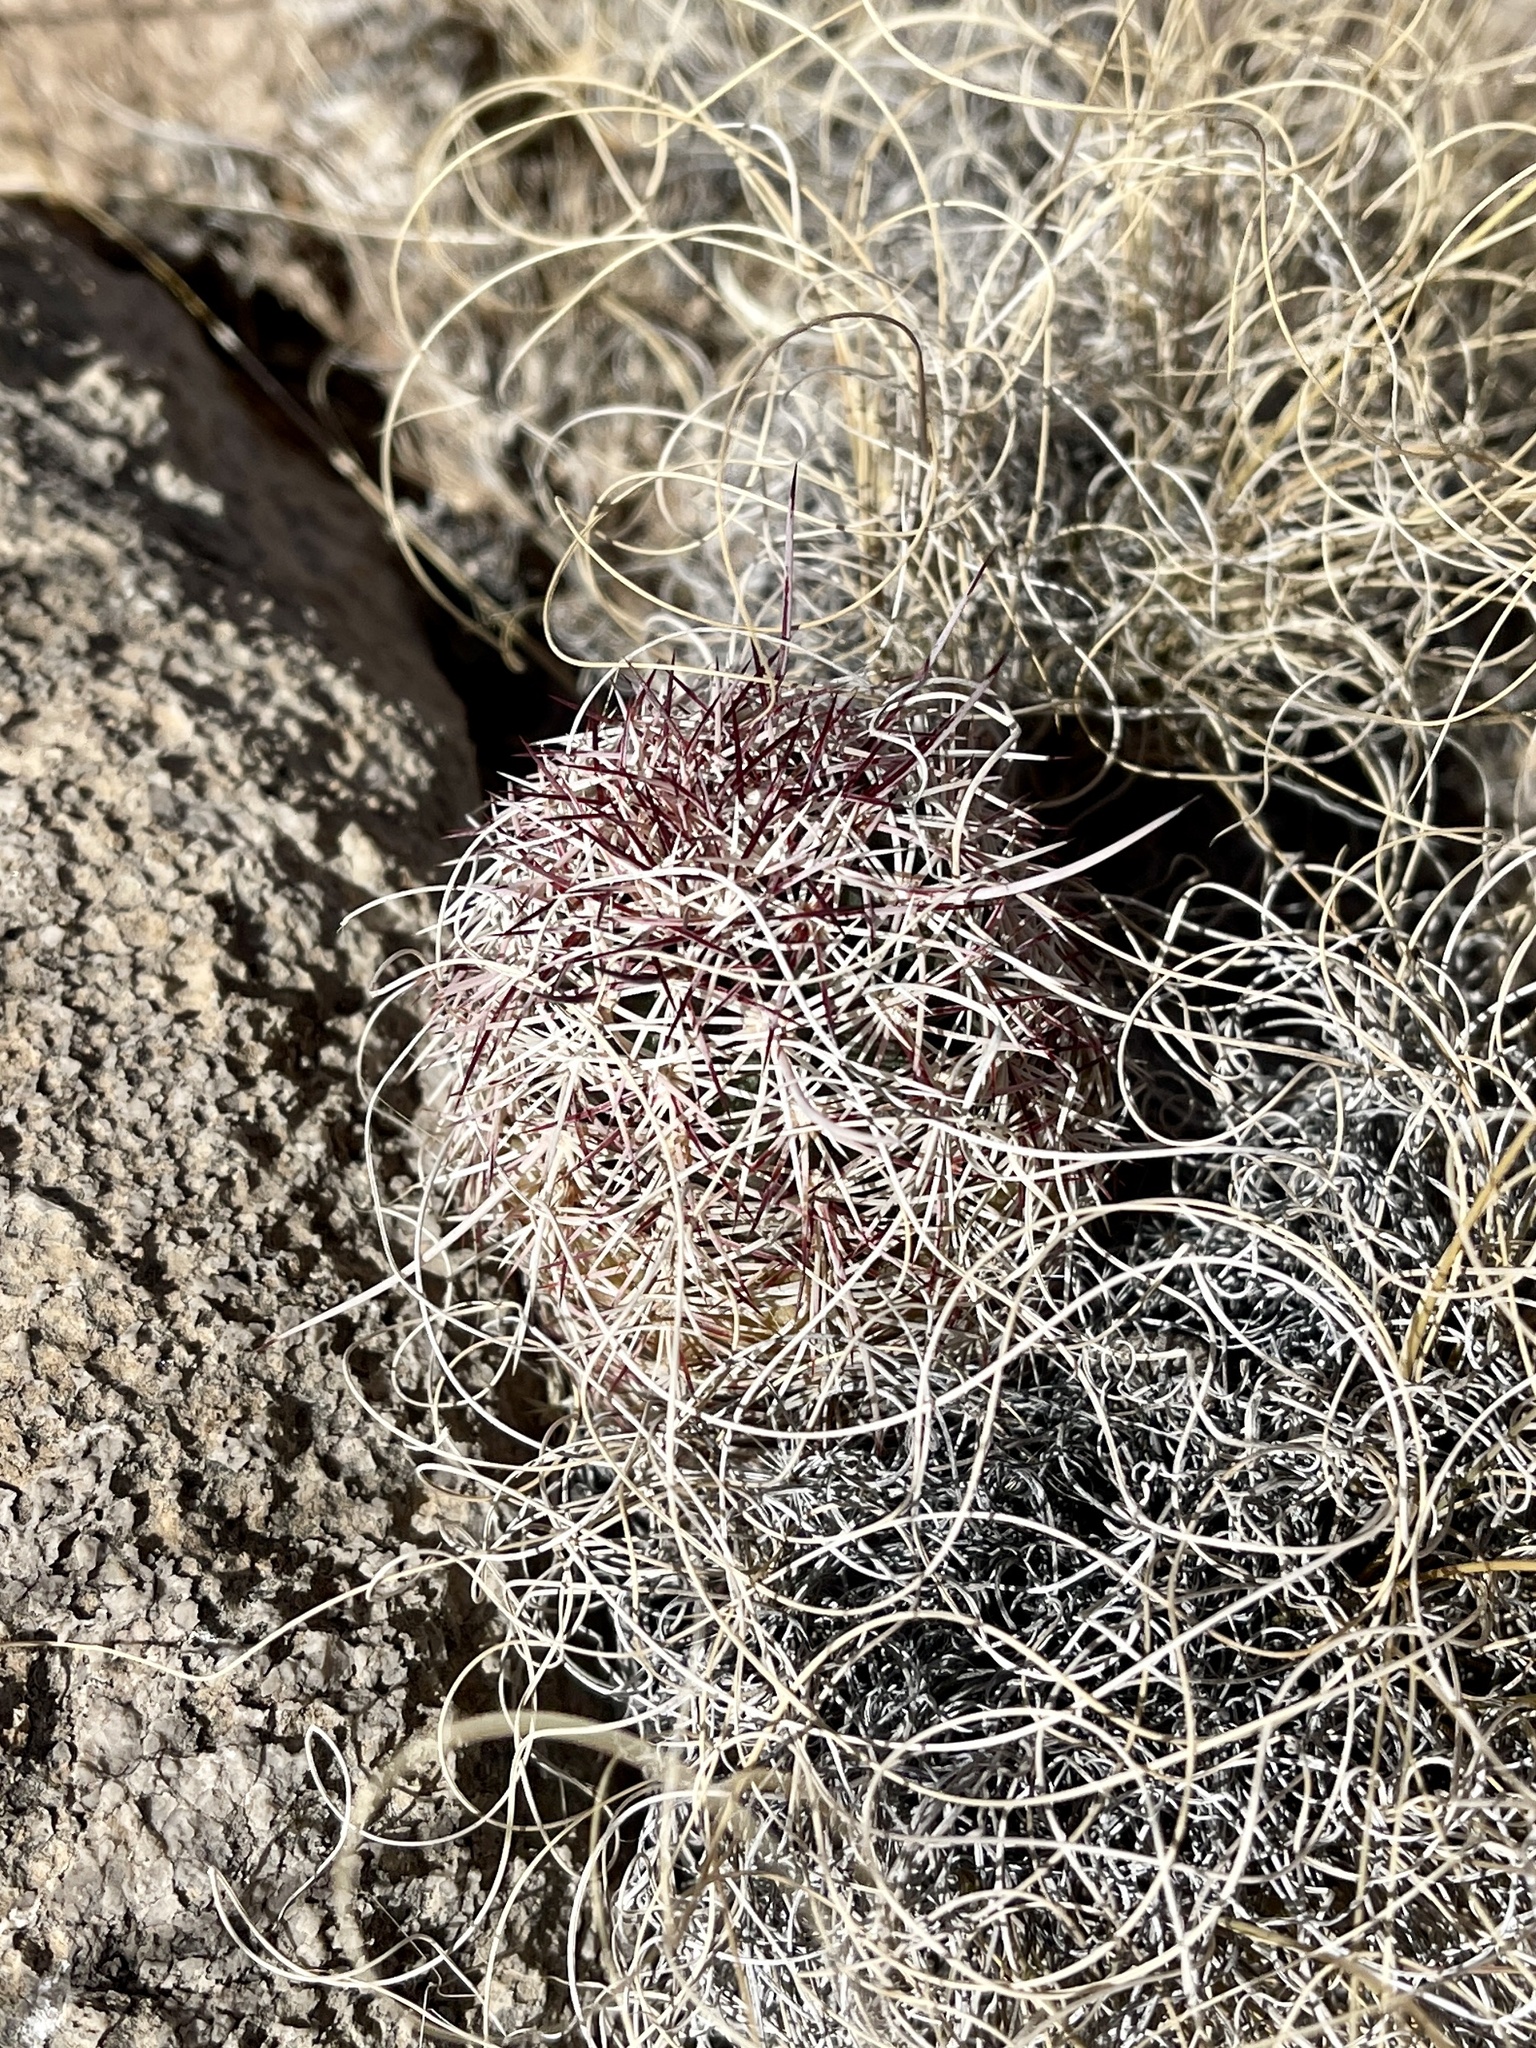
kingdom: Plantae
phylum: Tracheophyta
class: Magnoliopsida
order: Caryophyllales
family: Cactaceae
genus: Echinocereus
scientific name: Echinocereus viridiflorus
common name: Nylon hedgehog cactus
